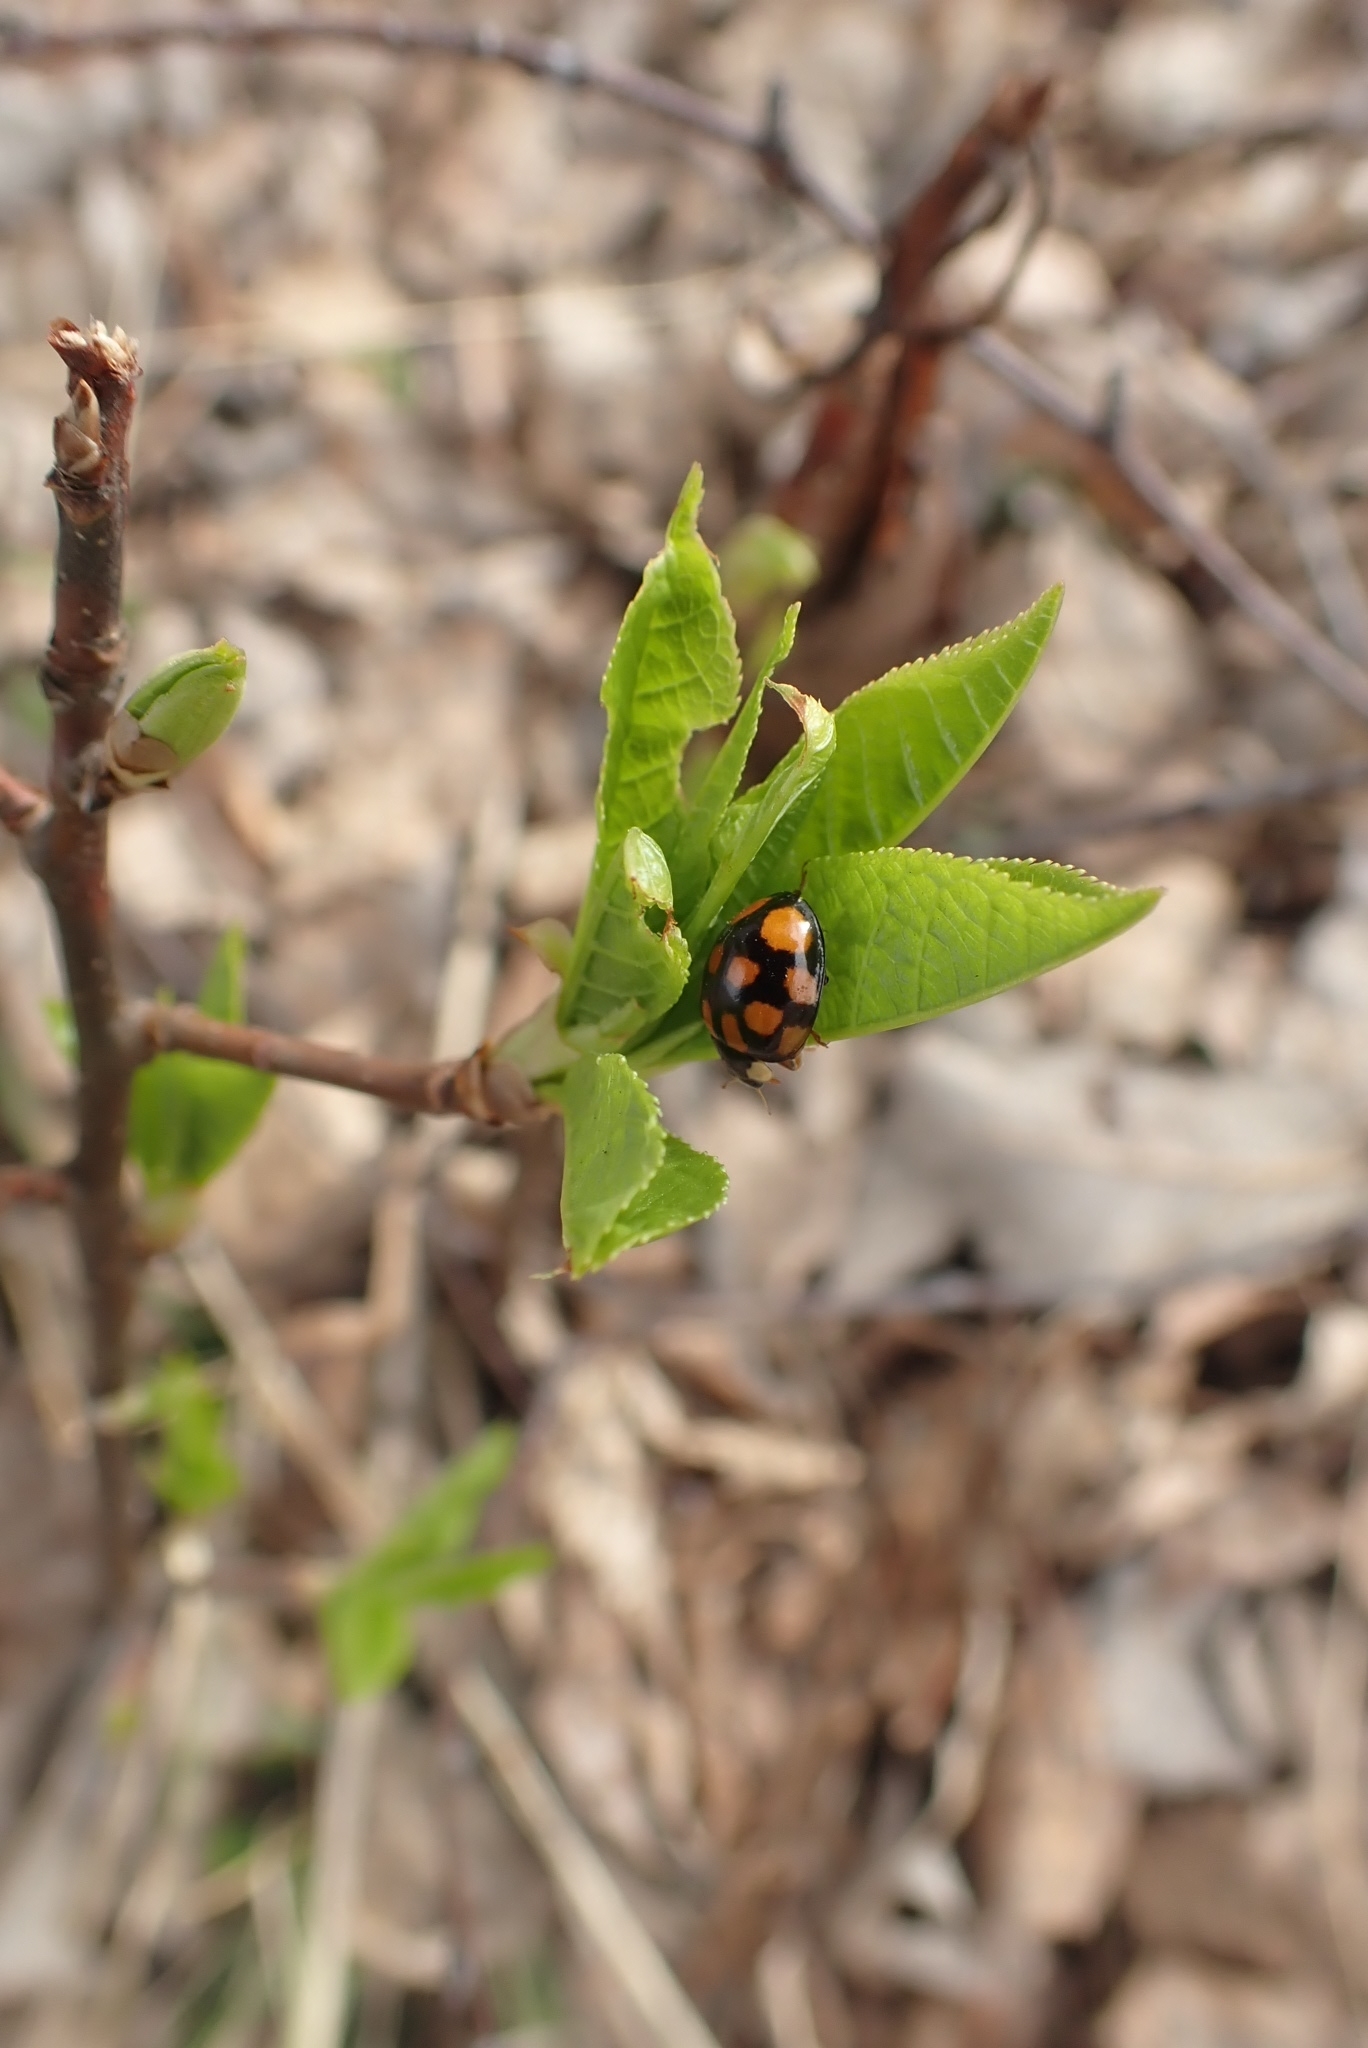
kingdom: Animalia
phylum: Arthropoda
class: Insecta
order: Coleoptera
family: Coccinellidae
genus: Harmonia
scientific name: Harmonia axyridis
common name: Harlequin ladybird
